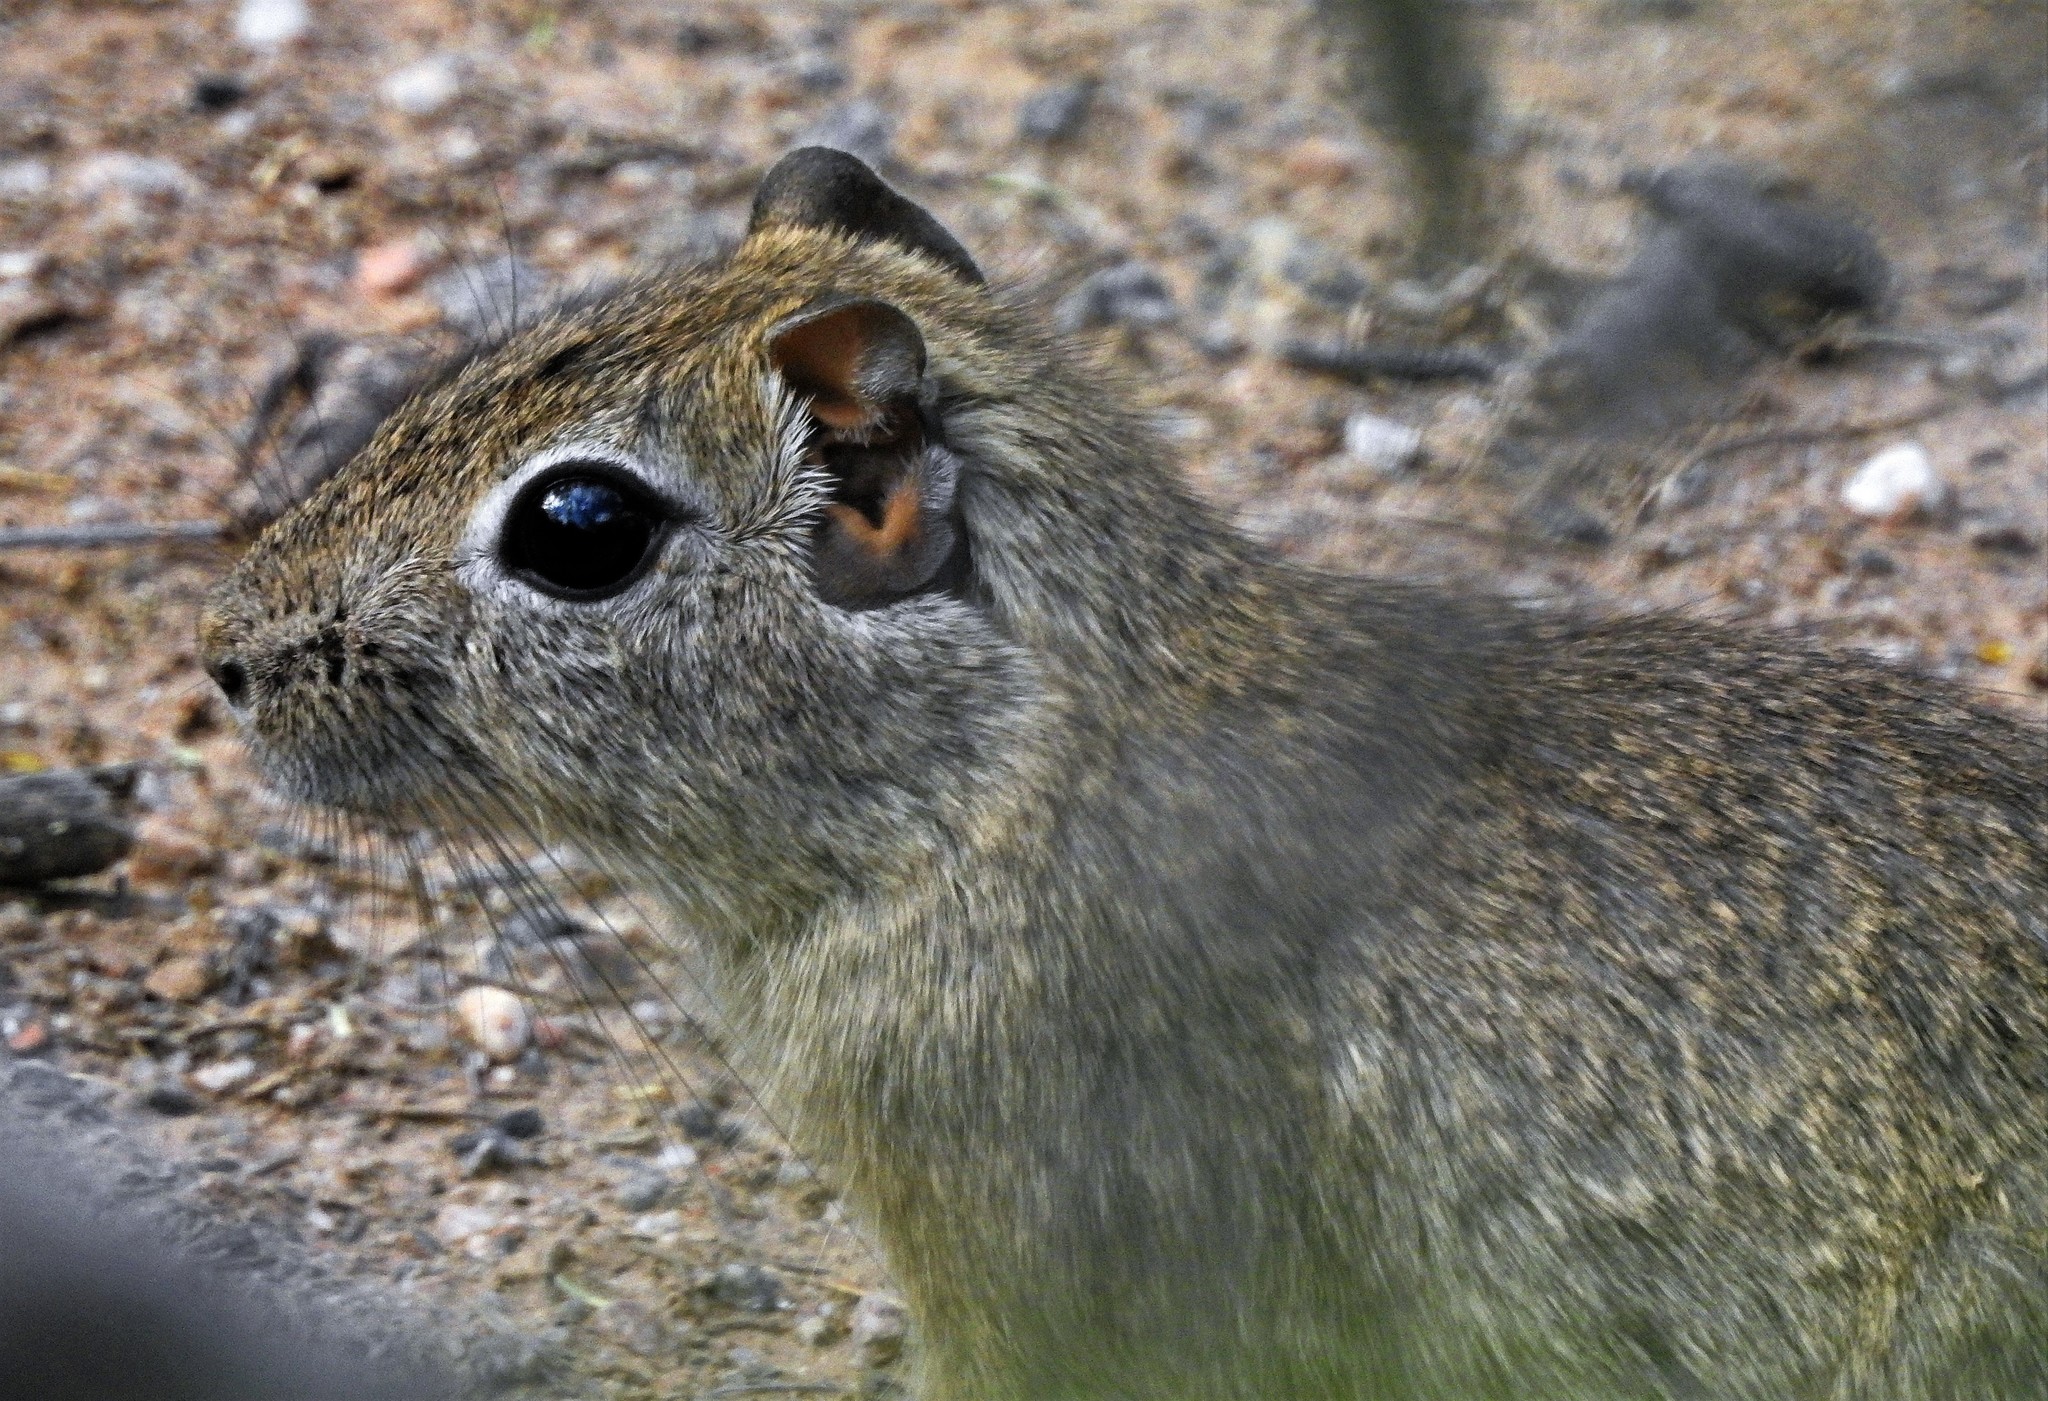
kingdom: Animalia
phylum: Chordata
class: Mammalia
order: Rodentia
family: Caviidae
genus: Microcavia
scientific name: Microcavia
